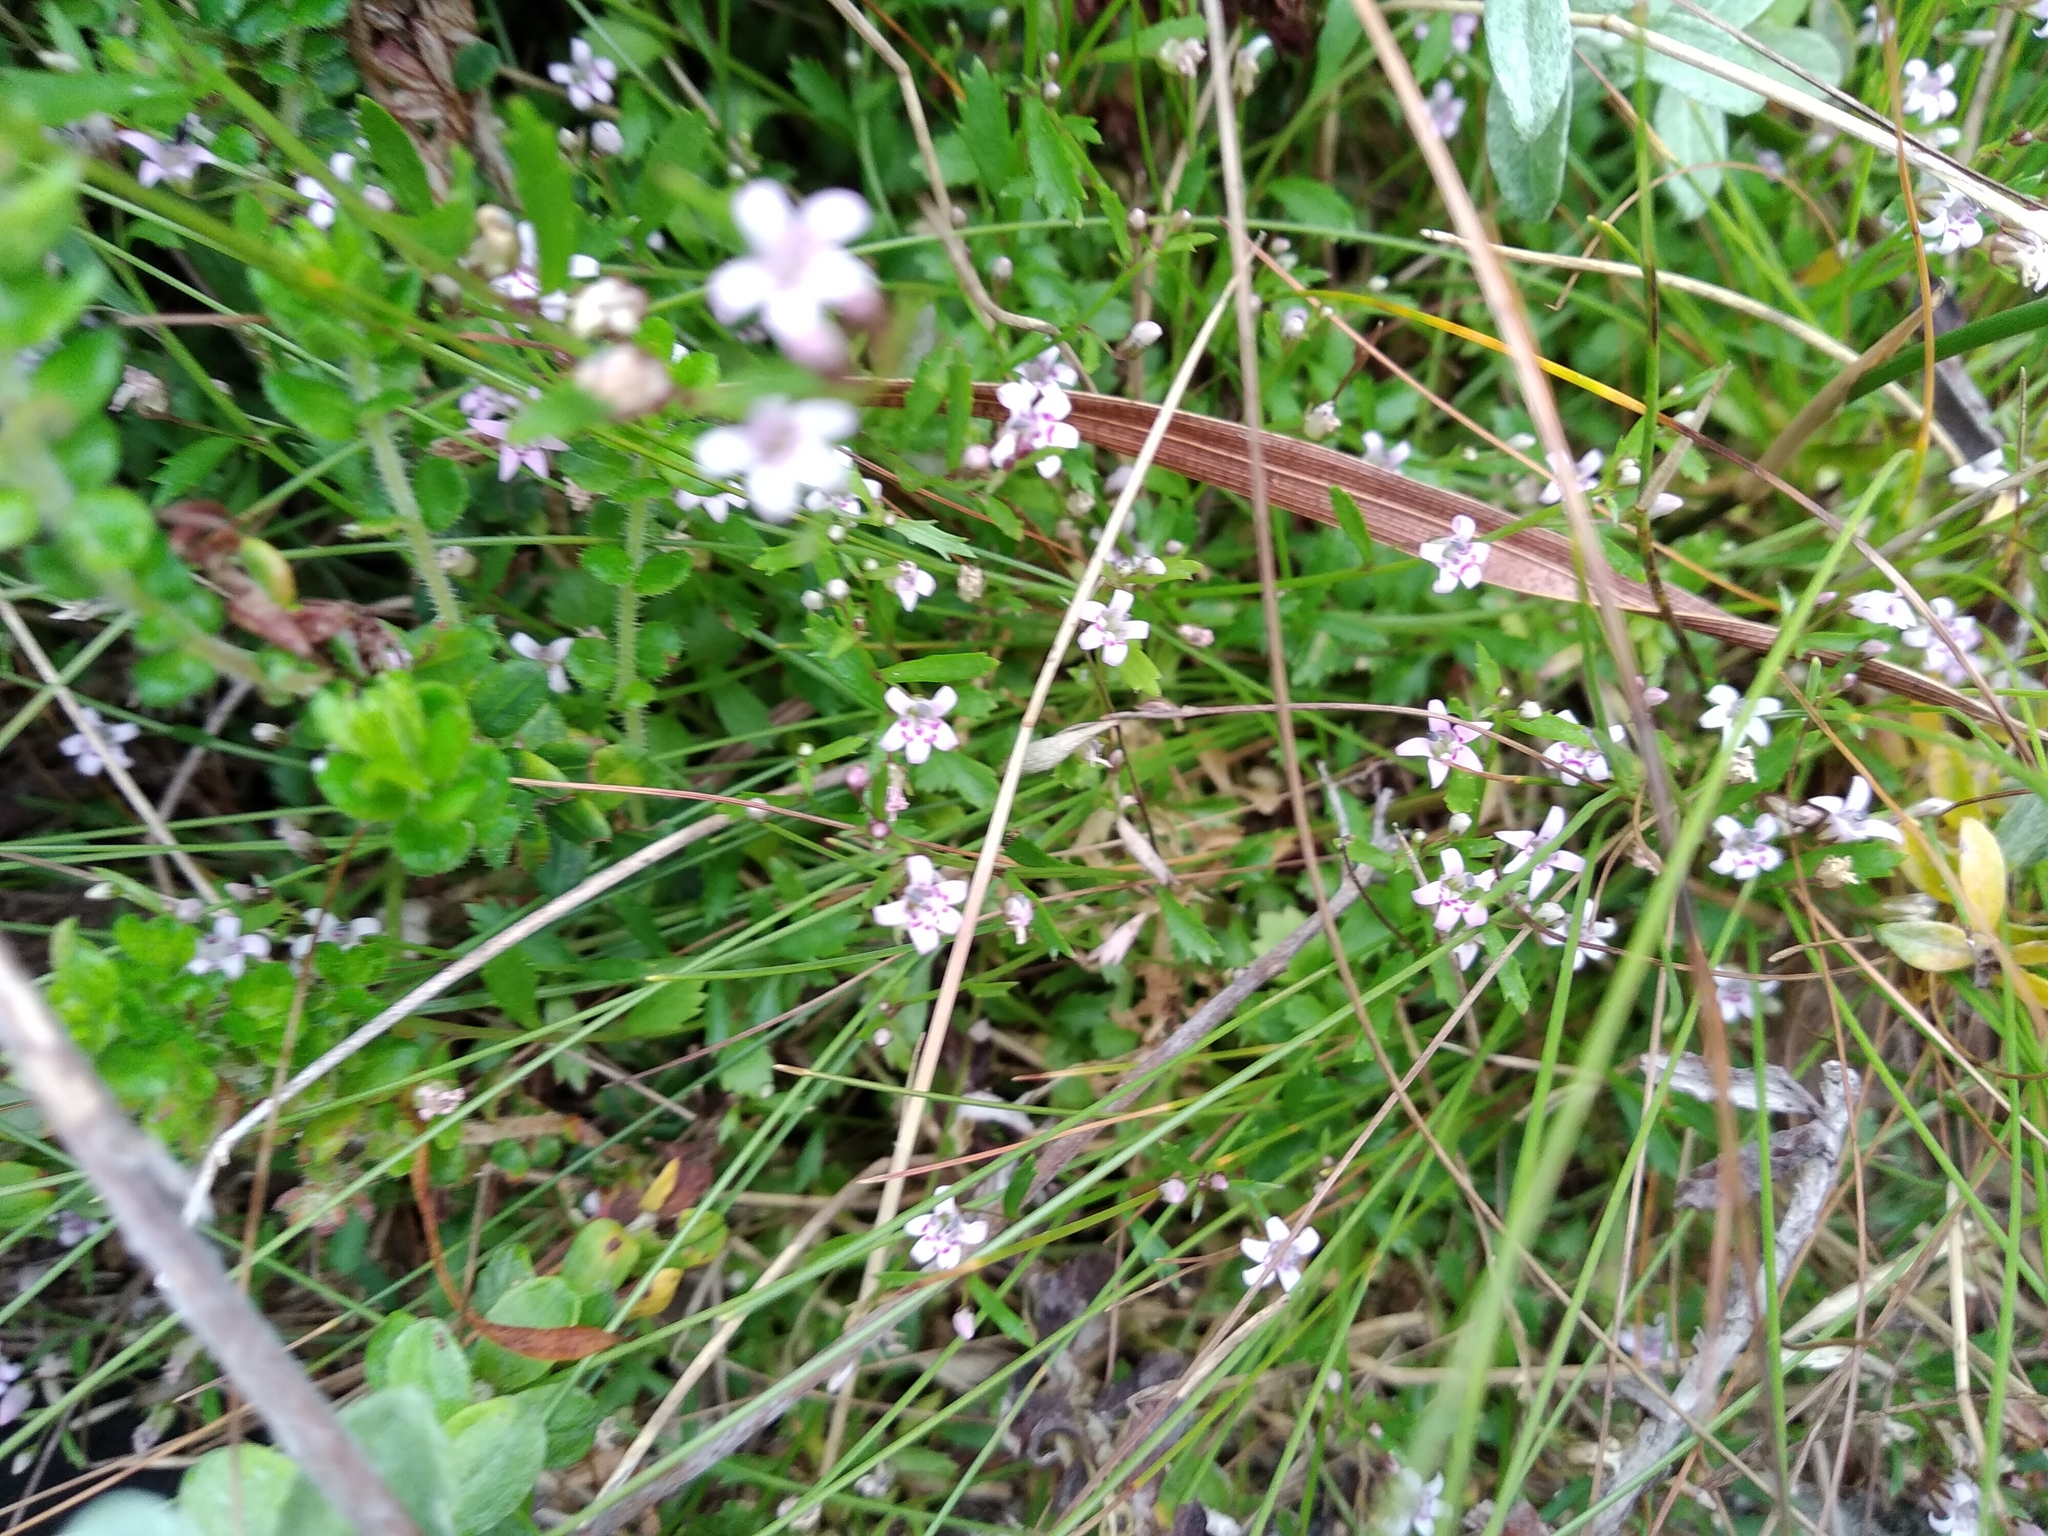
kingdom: Plantae
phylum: Tracheophyta
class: Magnoliopsida
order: Asterales
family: Campanulaceae
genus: Lobelia
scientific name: Lobelia eckloniana
